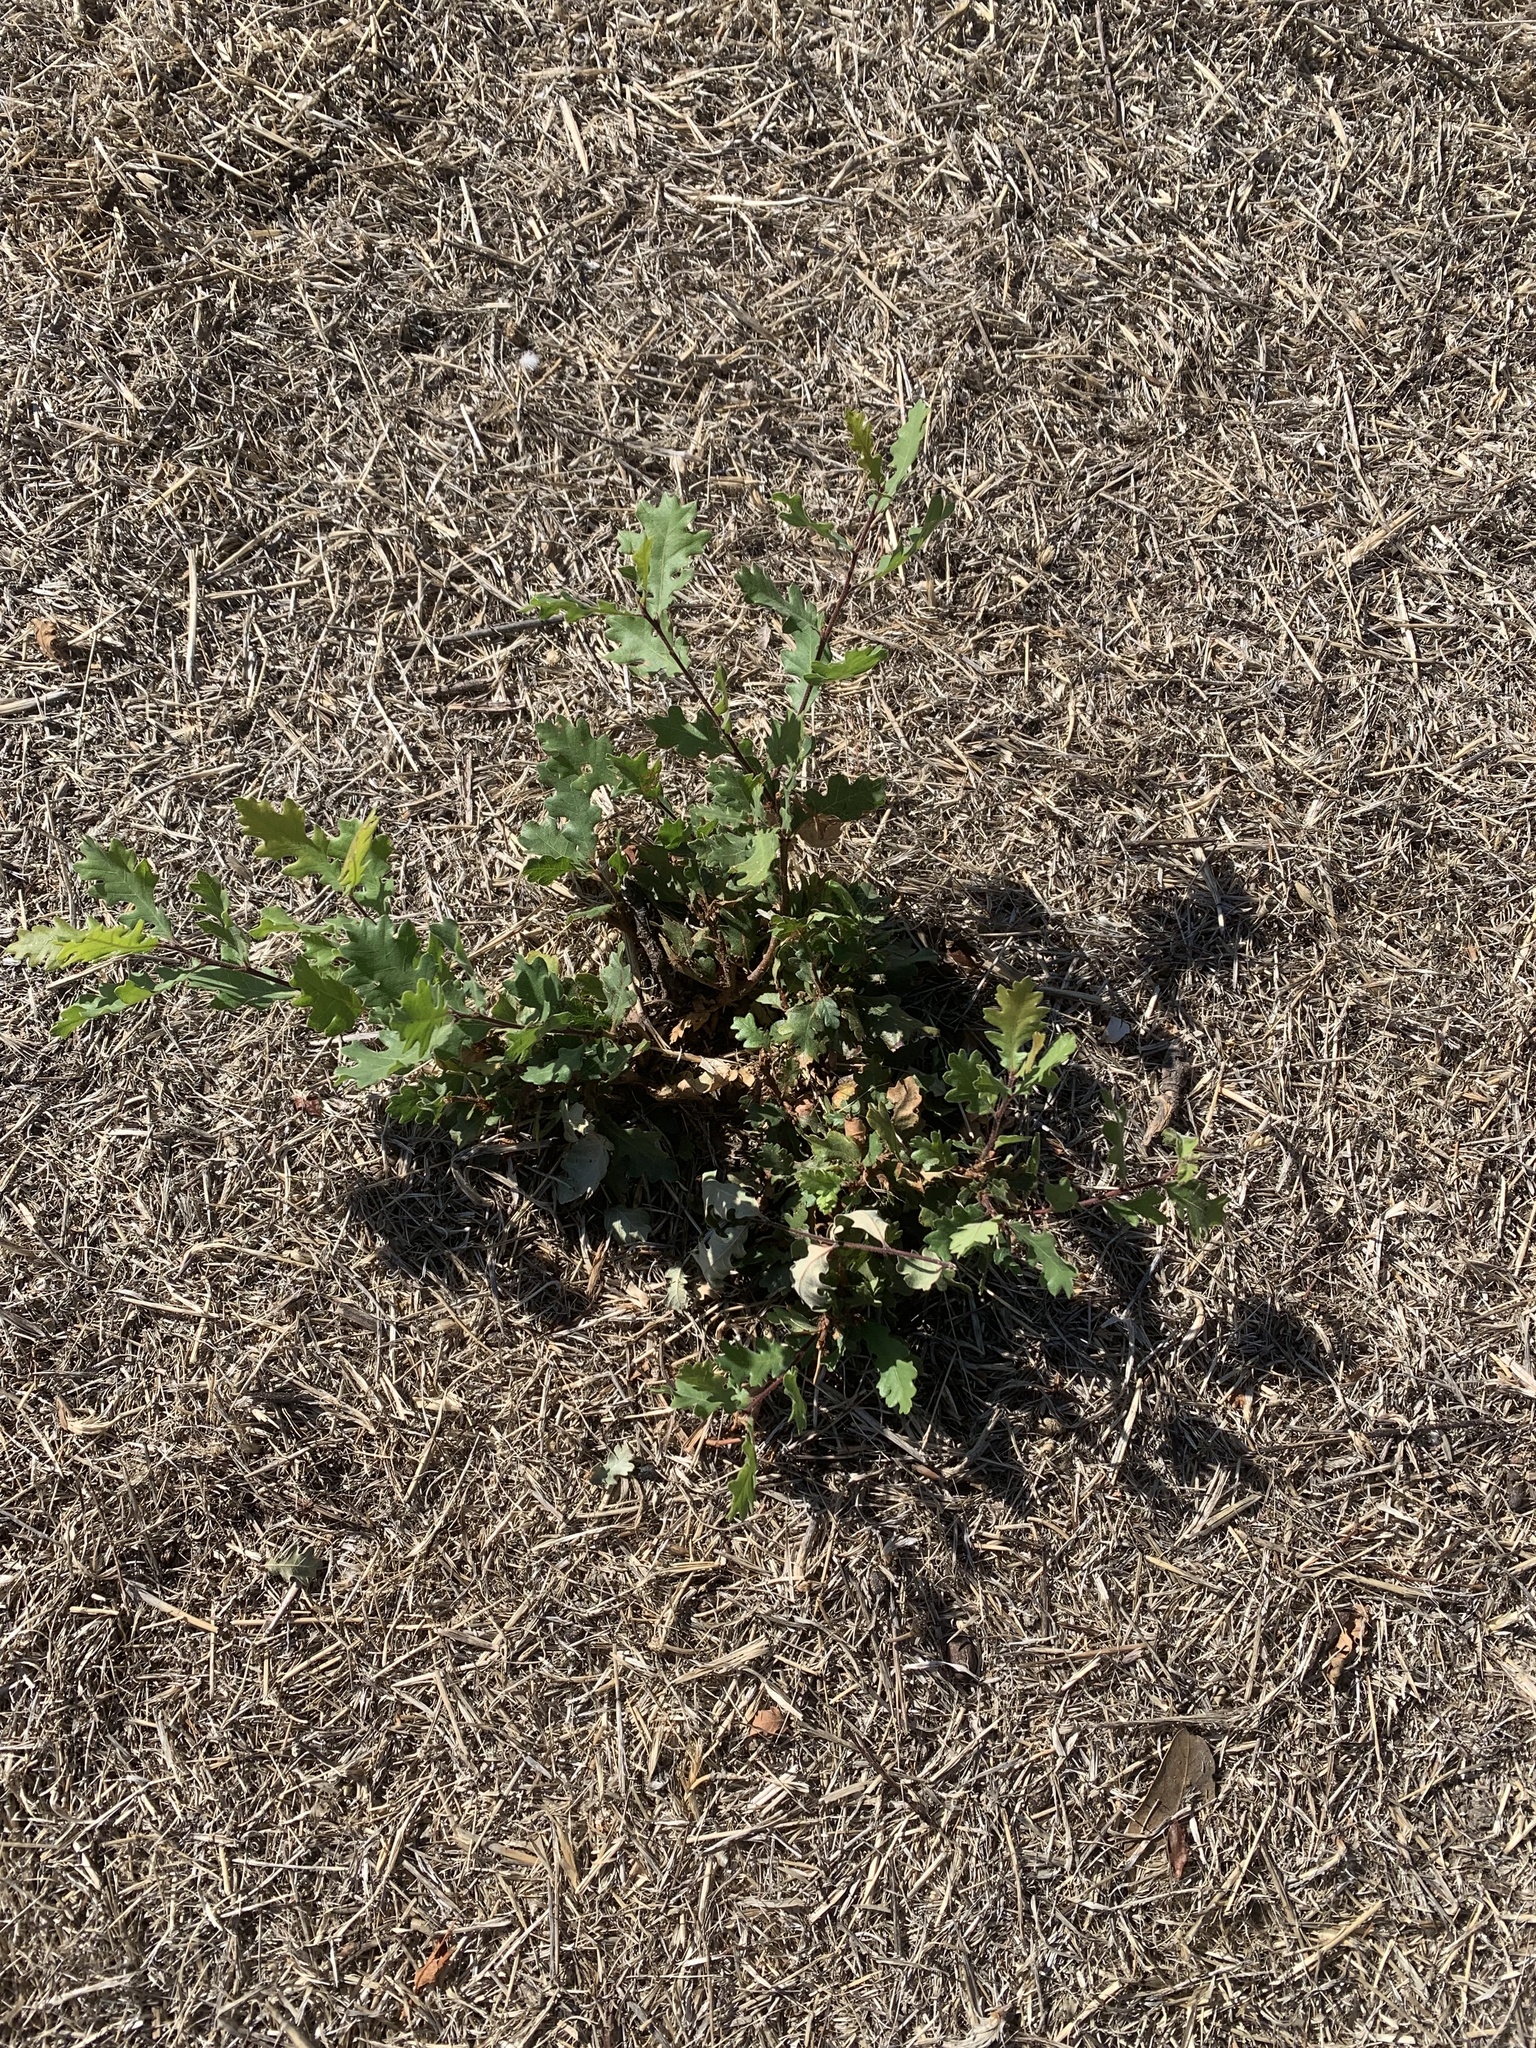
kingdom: Plantae
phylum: Tracheophyta
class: Magnoliopsida
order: Fagales
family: Fagaceae
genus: Quercus
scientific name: Quercus lobata
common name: Valley oak
